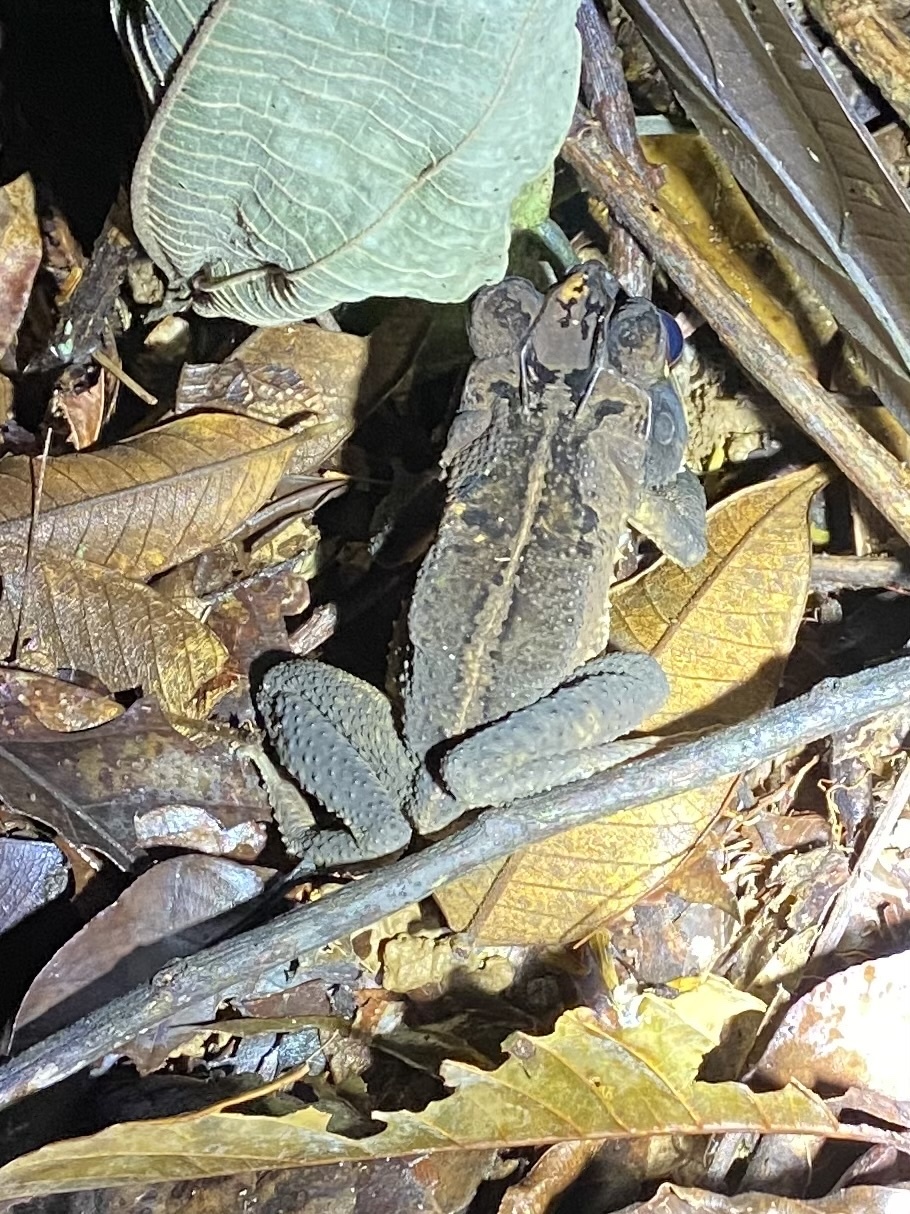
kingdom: Animalia
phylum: Chordata
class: Amphibia
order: Anura
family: Bufonidae
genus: Incilius
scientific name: Incilius melanochlorus
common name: Dark green toad
